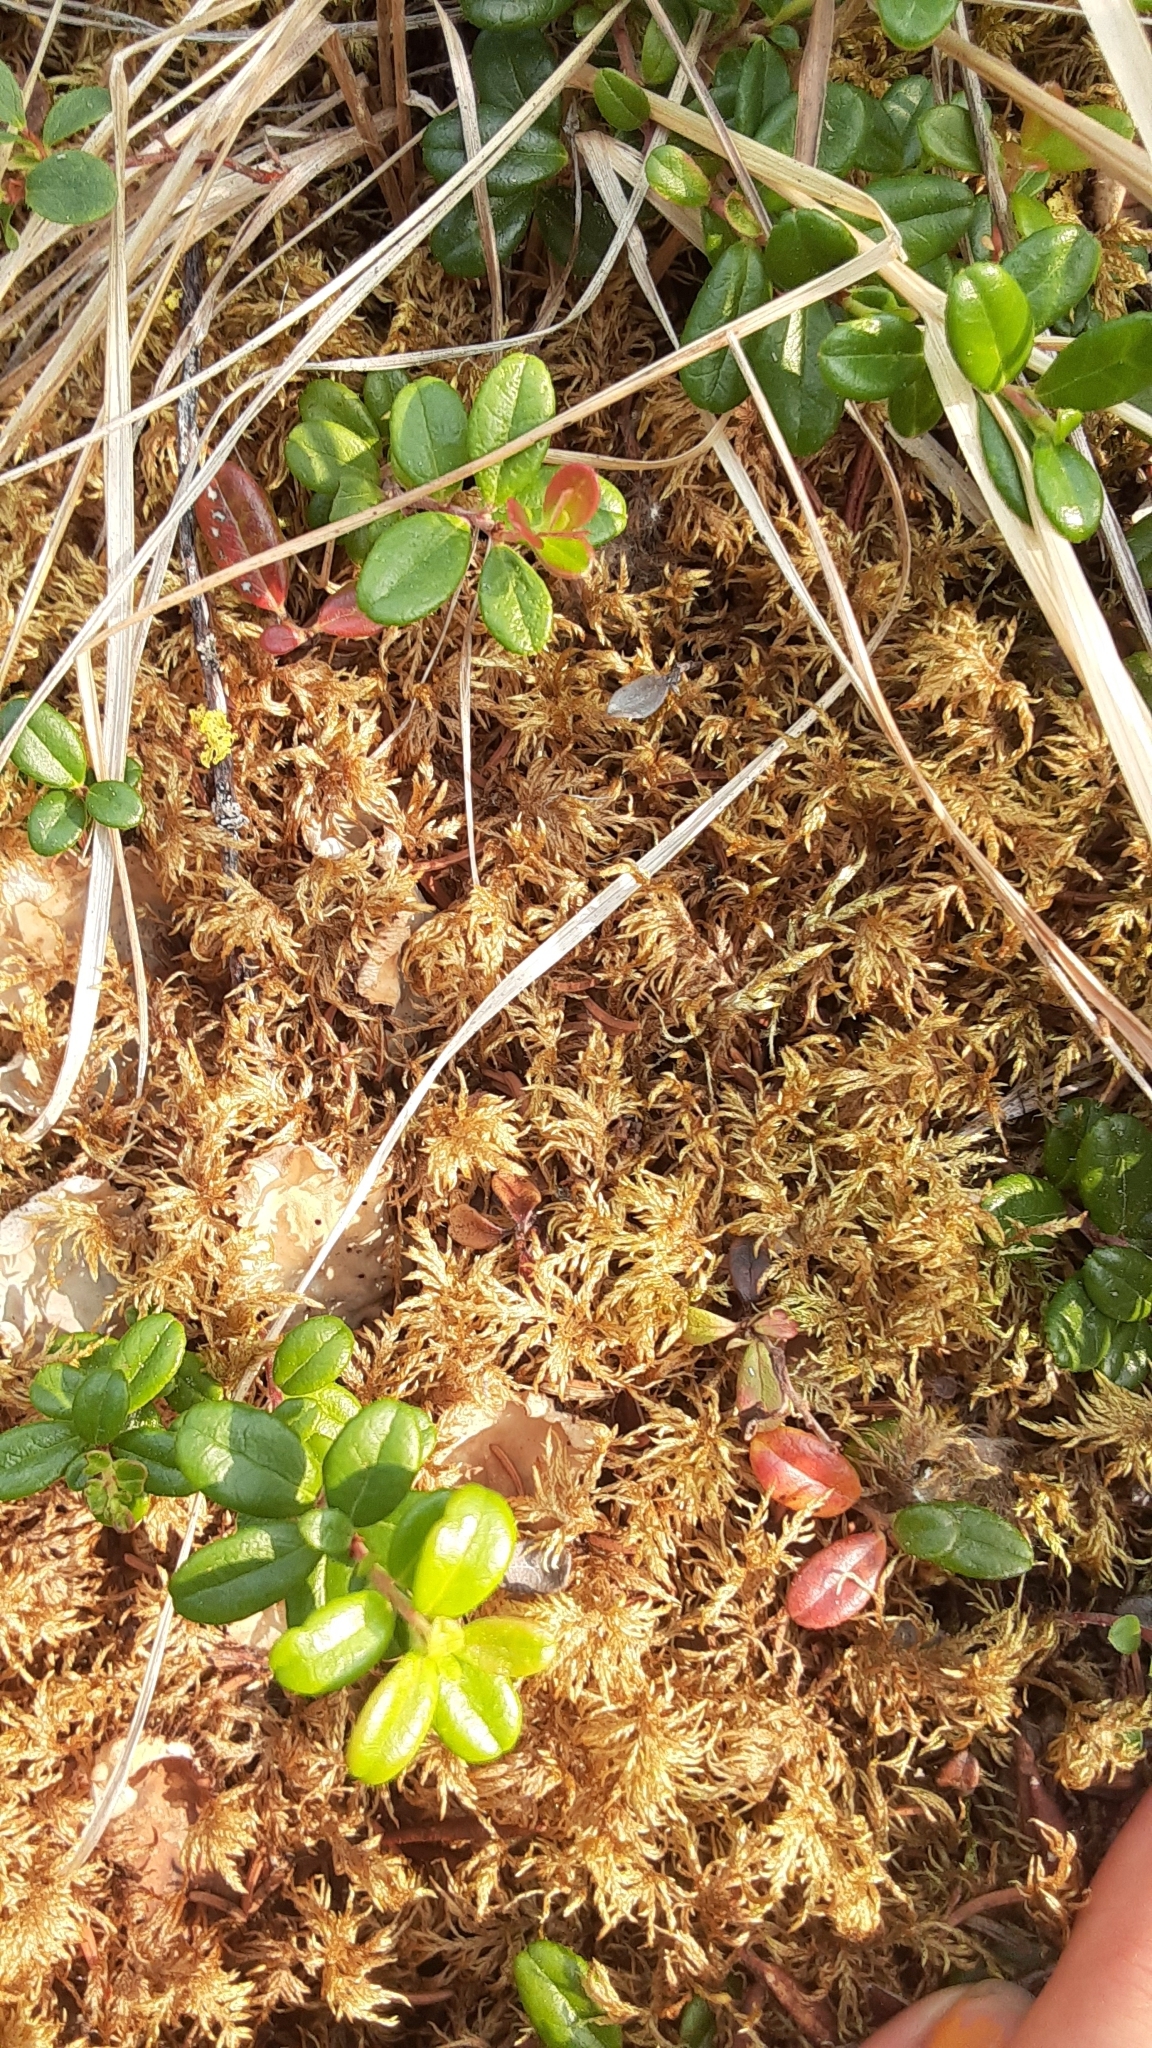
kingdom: Plantae
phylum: Bryophyta
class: Bryopsida
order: Hypnales
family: Hylocomiaceae
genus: Hylocomium
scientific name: Hylocomium splendens
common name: Stairstep moss
